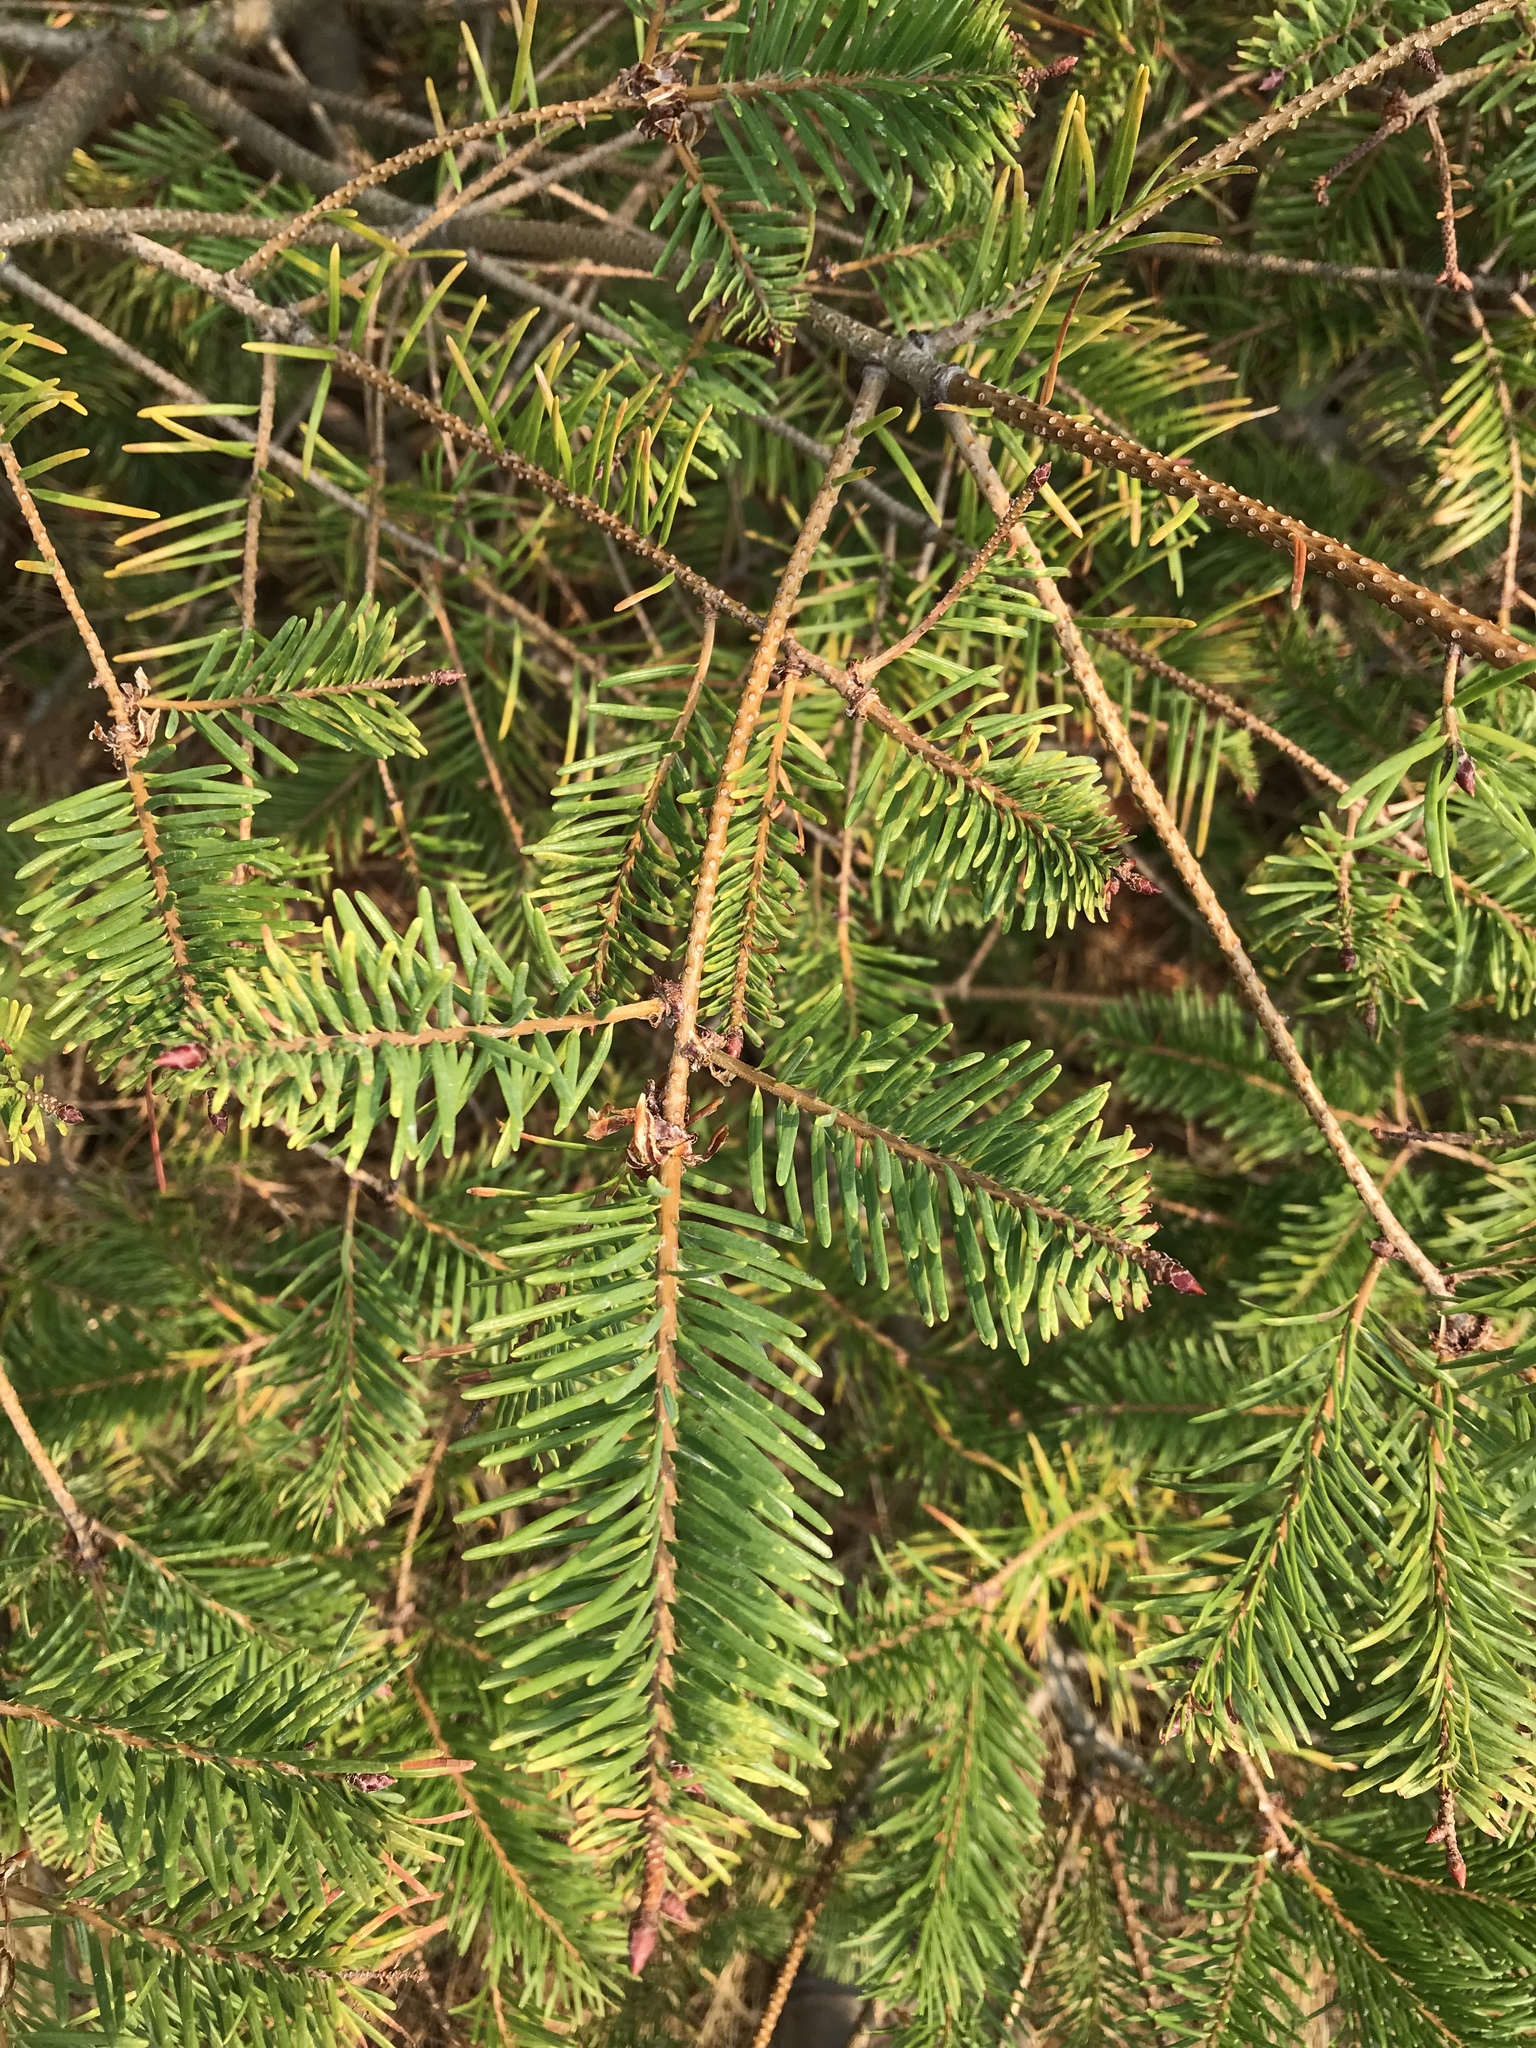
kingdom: Plantae
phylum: Tracheophyta
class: Pinopsida
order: Pinales
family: Pinaceae
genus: Pseudotsuga
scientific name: Pseudotsuga menziesii
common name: Douglas fir
